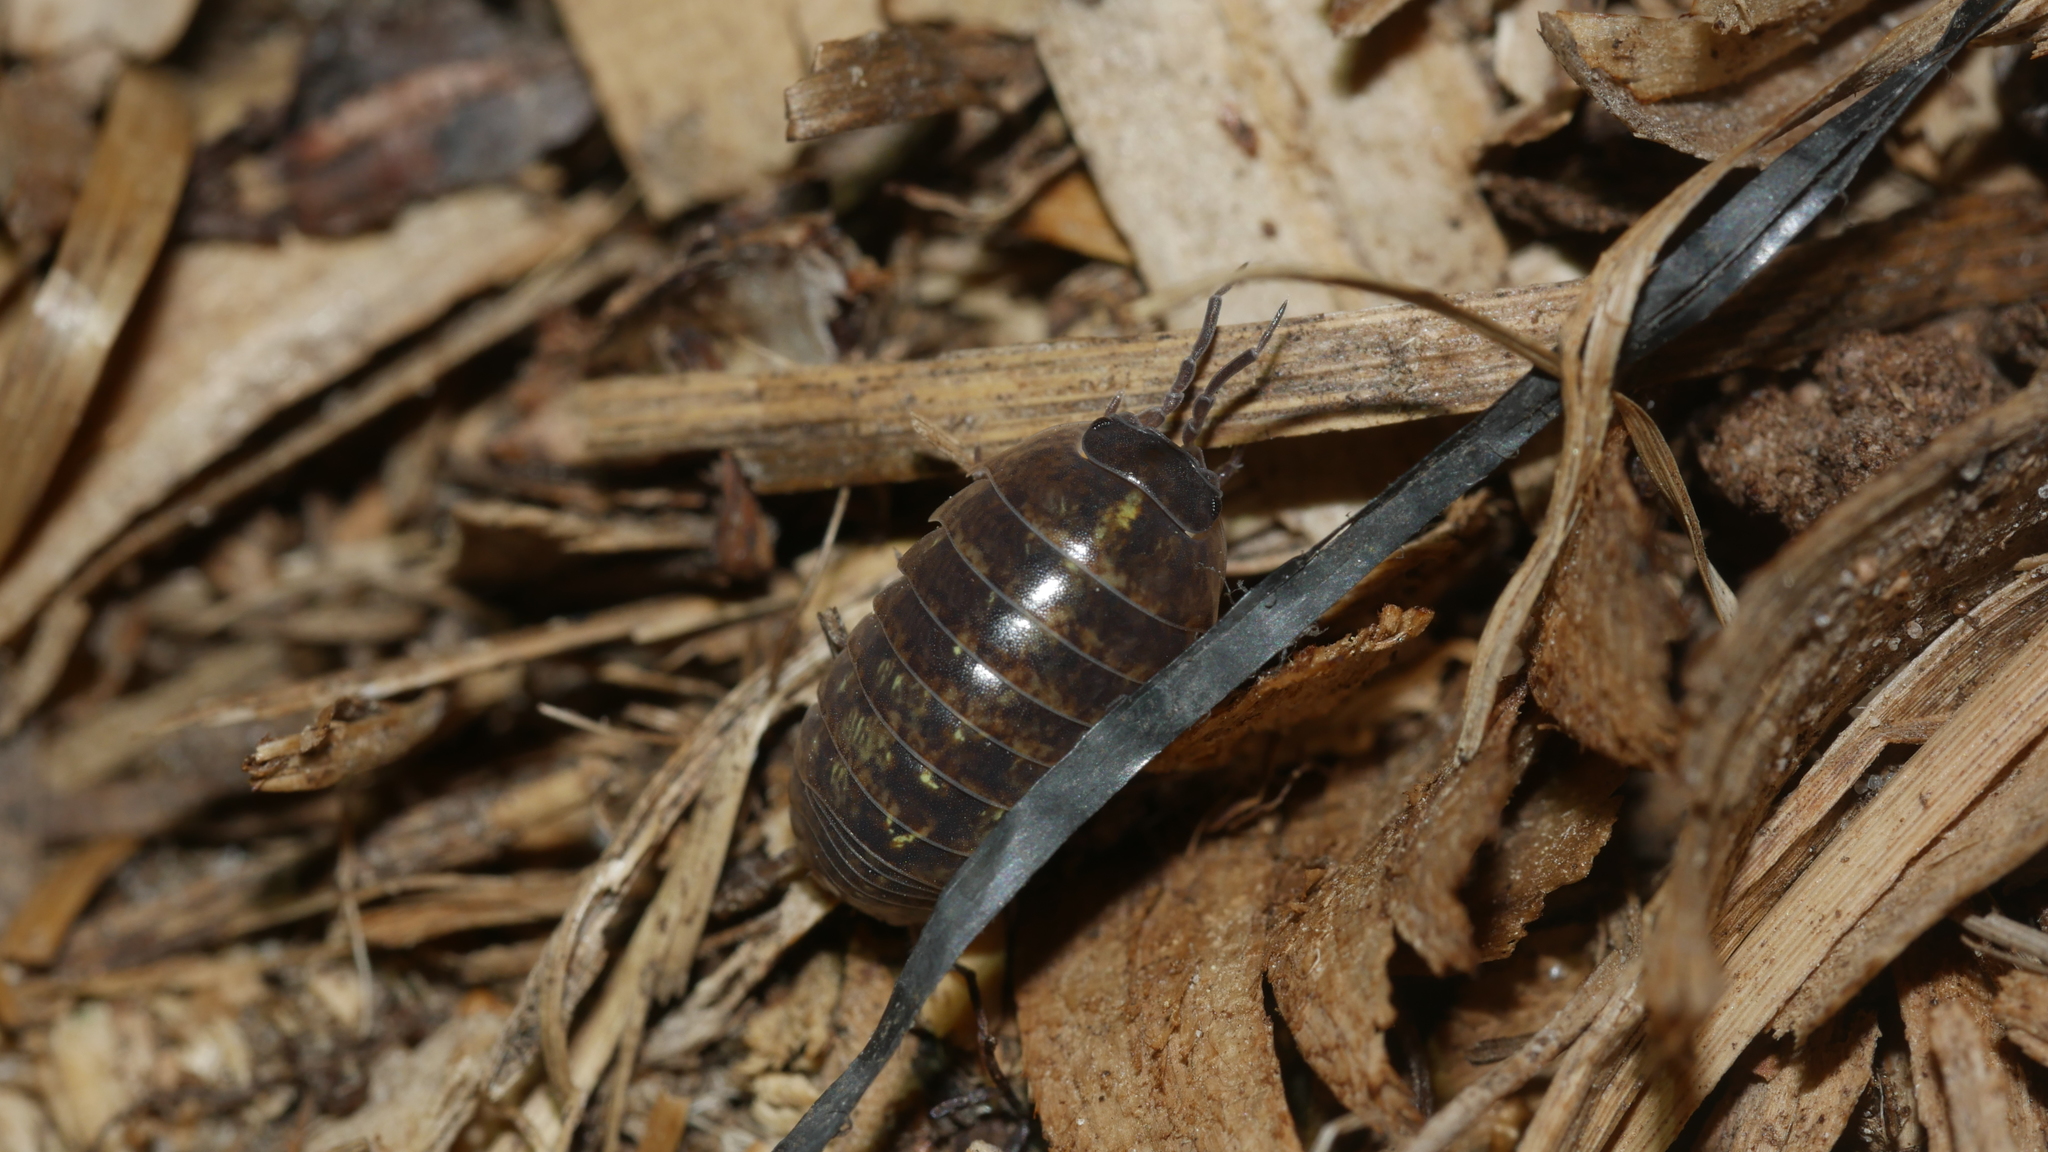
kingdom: Animalia
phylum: Arthropoda
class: Malacostraca
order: Isopoda
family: Armadillidiidae
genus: Armadillidium
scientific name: Armadillidium vulgare
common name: Common pill woodlouse
